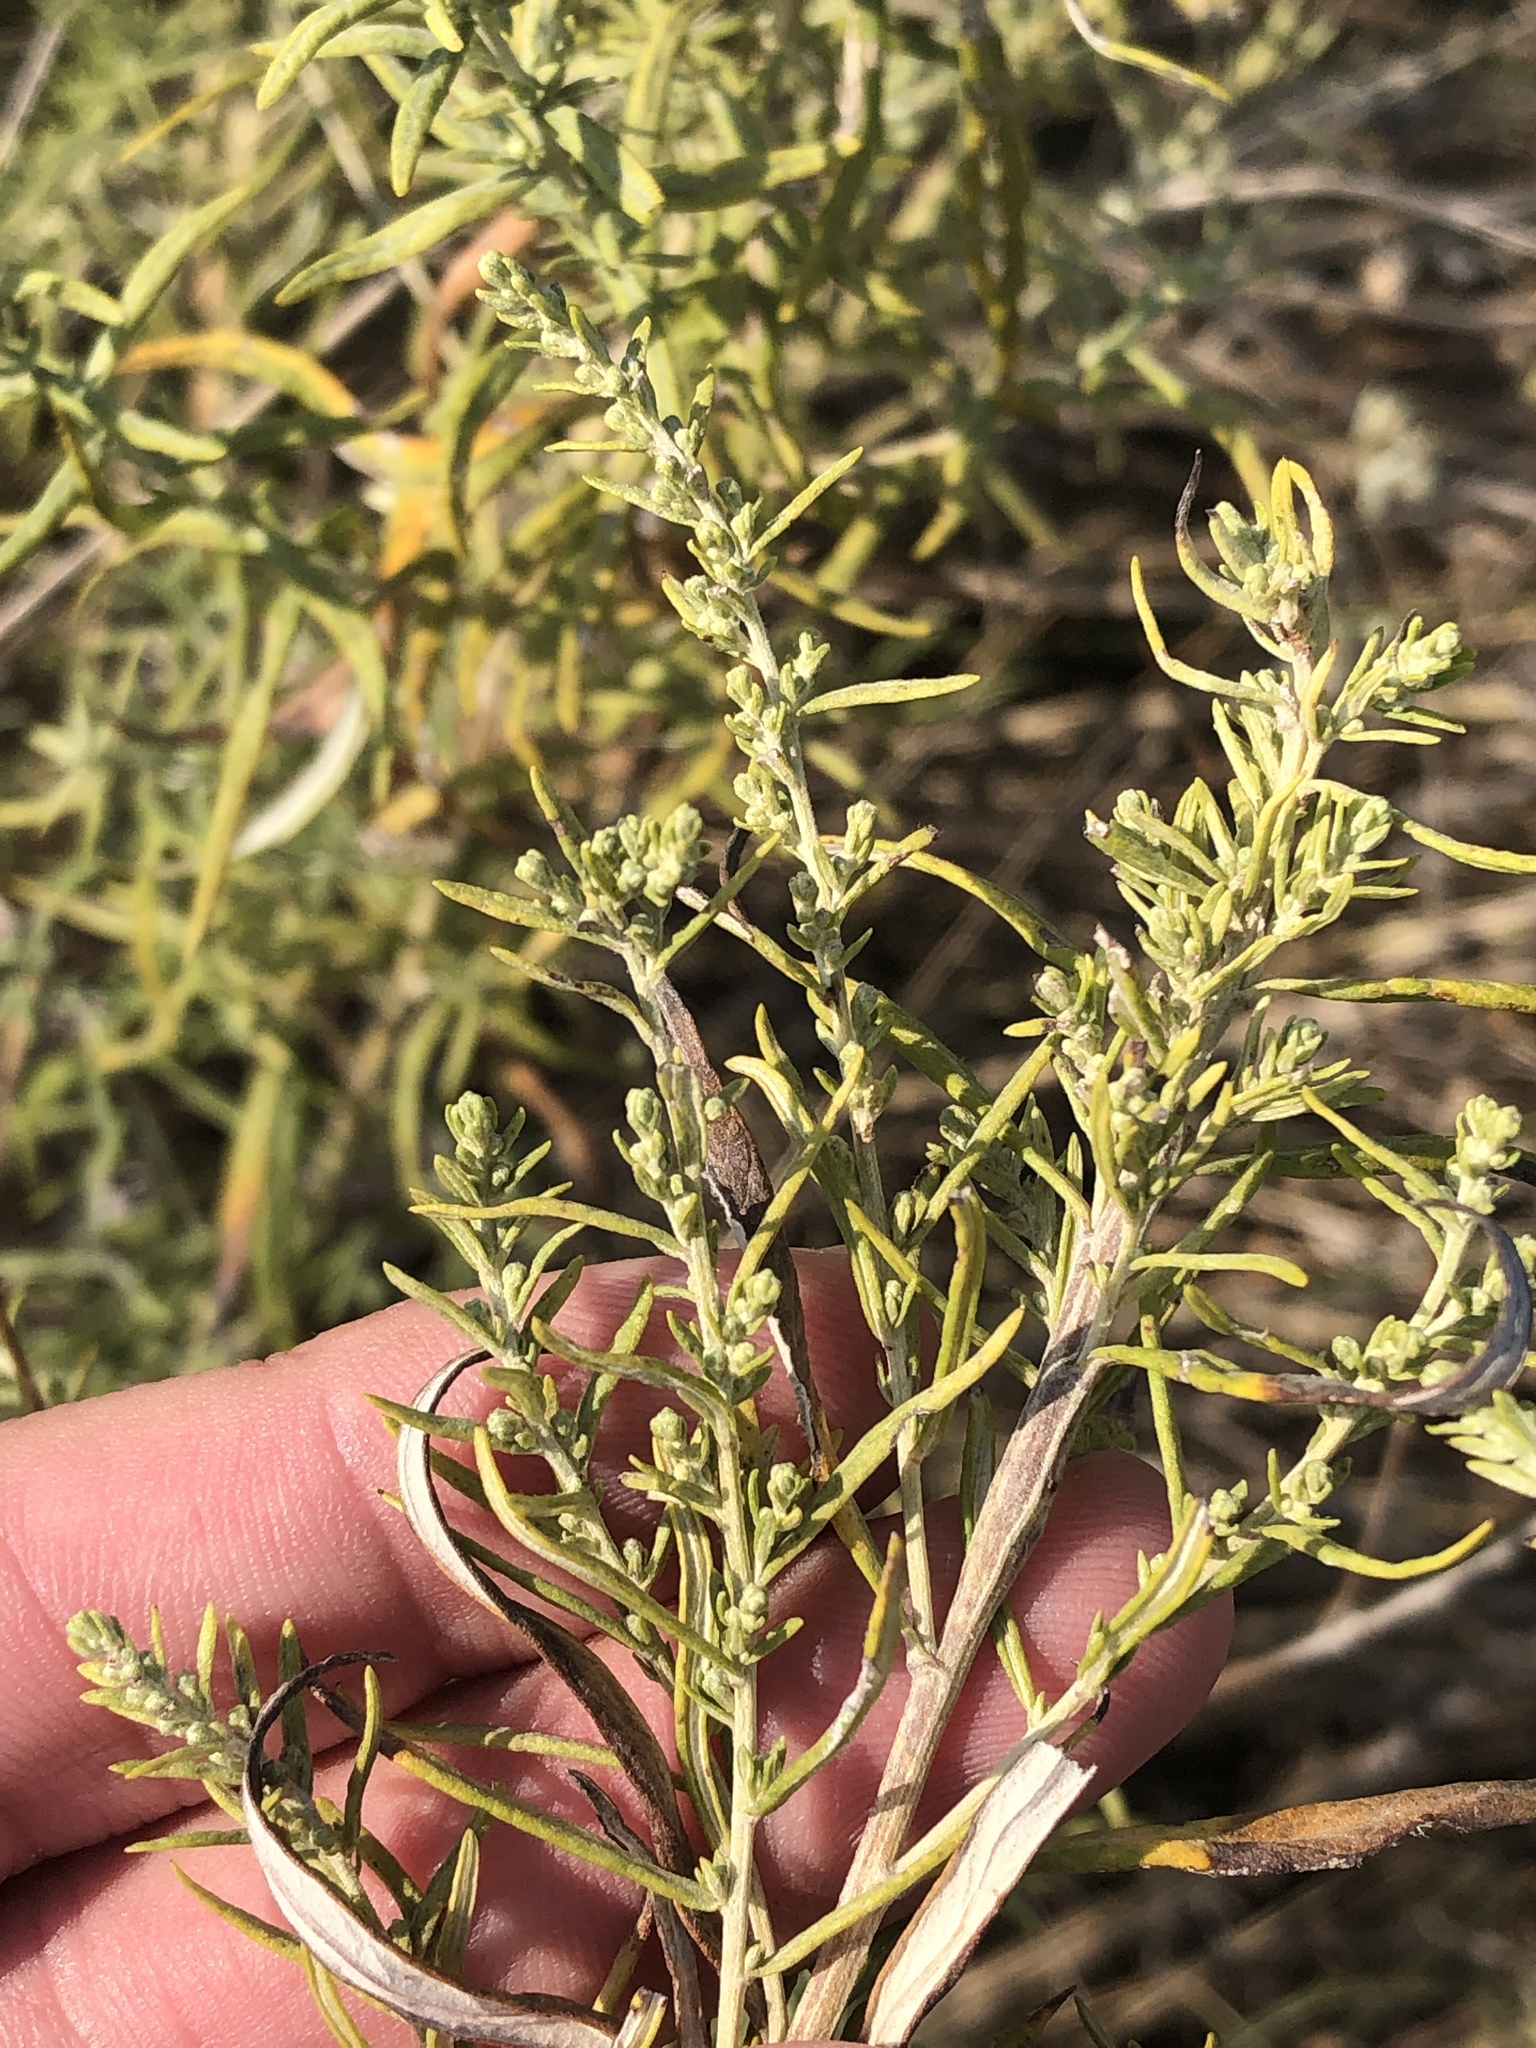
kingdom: Plantae
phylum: Tracheophyta
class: Magnoliopsida
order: Asterales
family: Asteraceae
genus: Artemisia
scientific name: Artemisia ludoviciana
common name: Western mugwort
